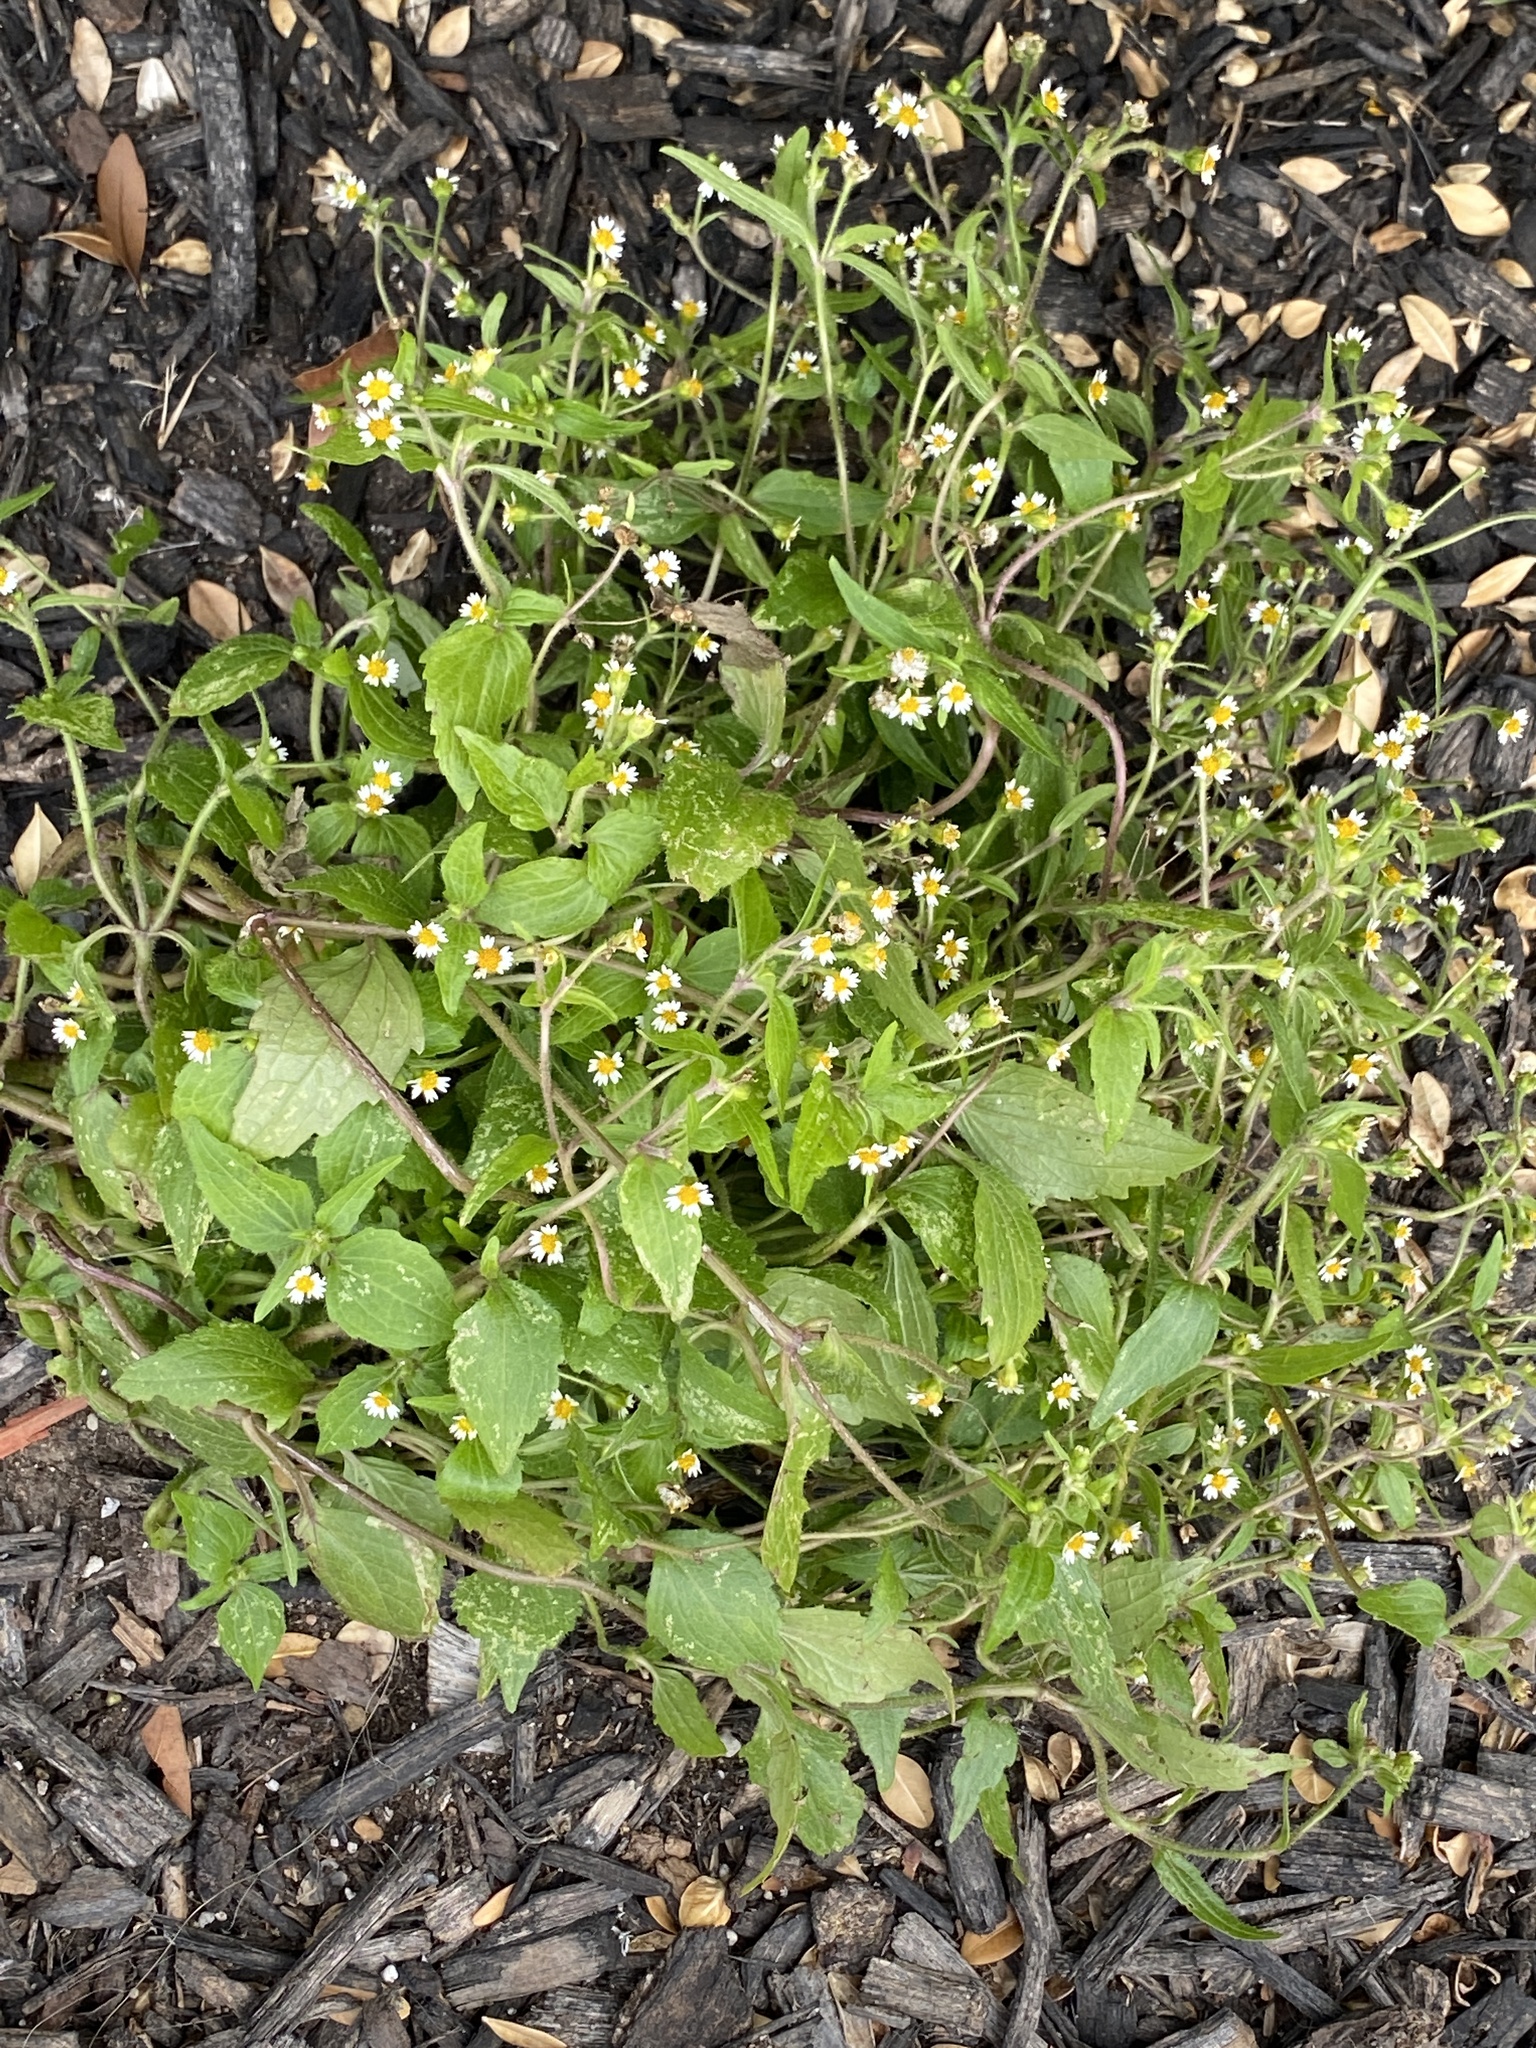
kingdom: Plantae
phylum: Tracheophyta
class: Magnoliopsida
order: Asterales
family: Asteraceae
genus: Galinsoga
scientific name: Galinsoga quadriradiata
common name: Shaggy soldier
